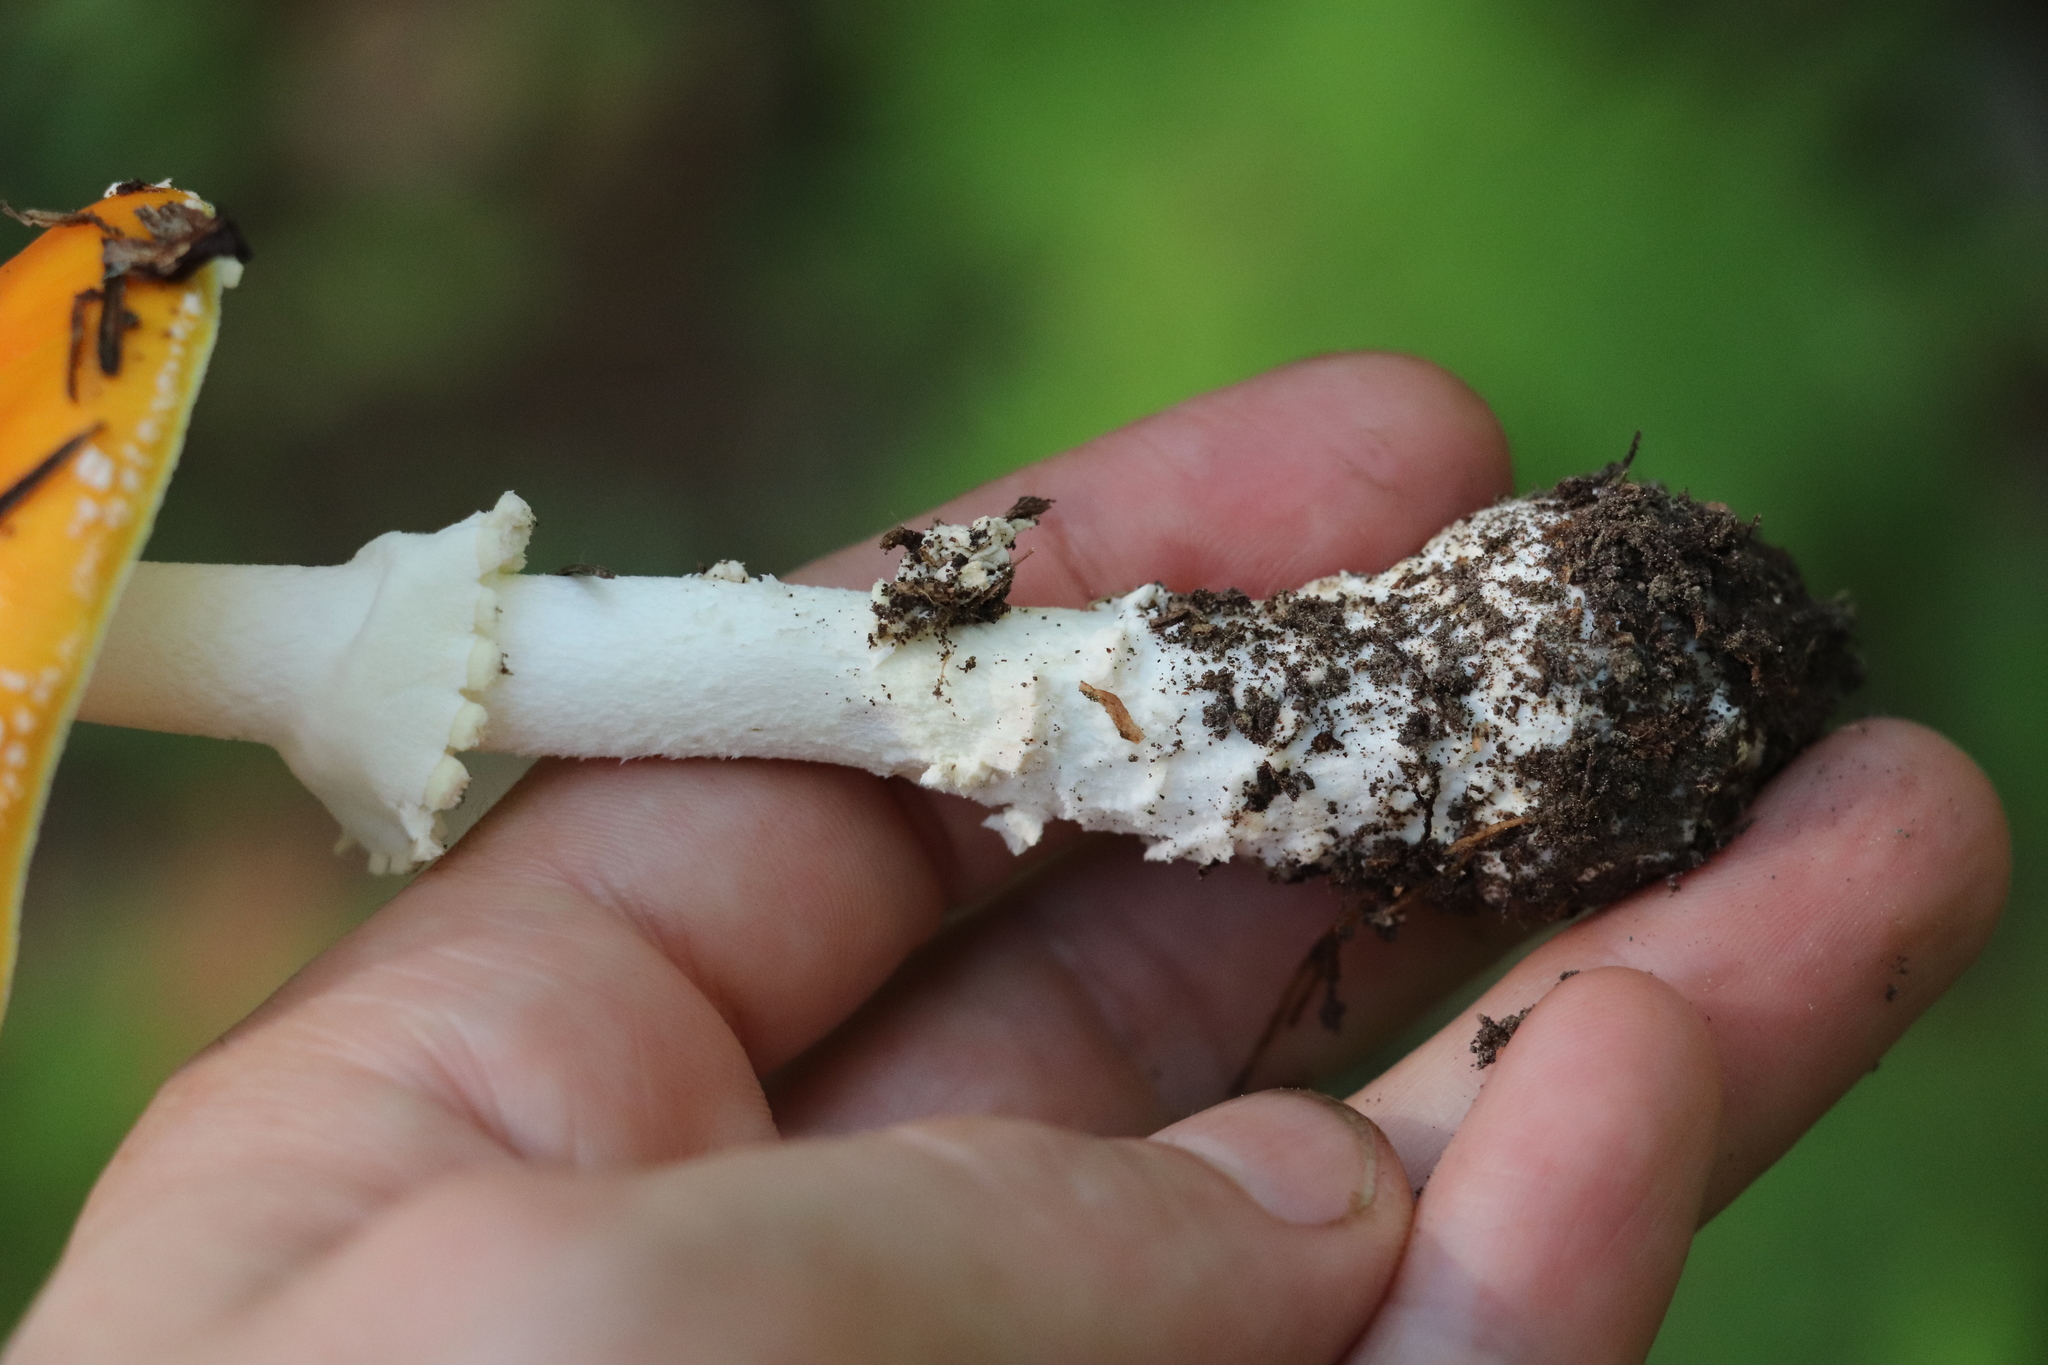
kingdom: Fungi
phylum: Basidiomycota
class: Agaricomycetes
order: Agaricales
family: Amanitaceae
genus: Amanita
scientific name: Amanita muscaria
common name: Fly agaric
